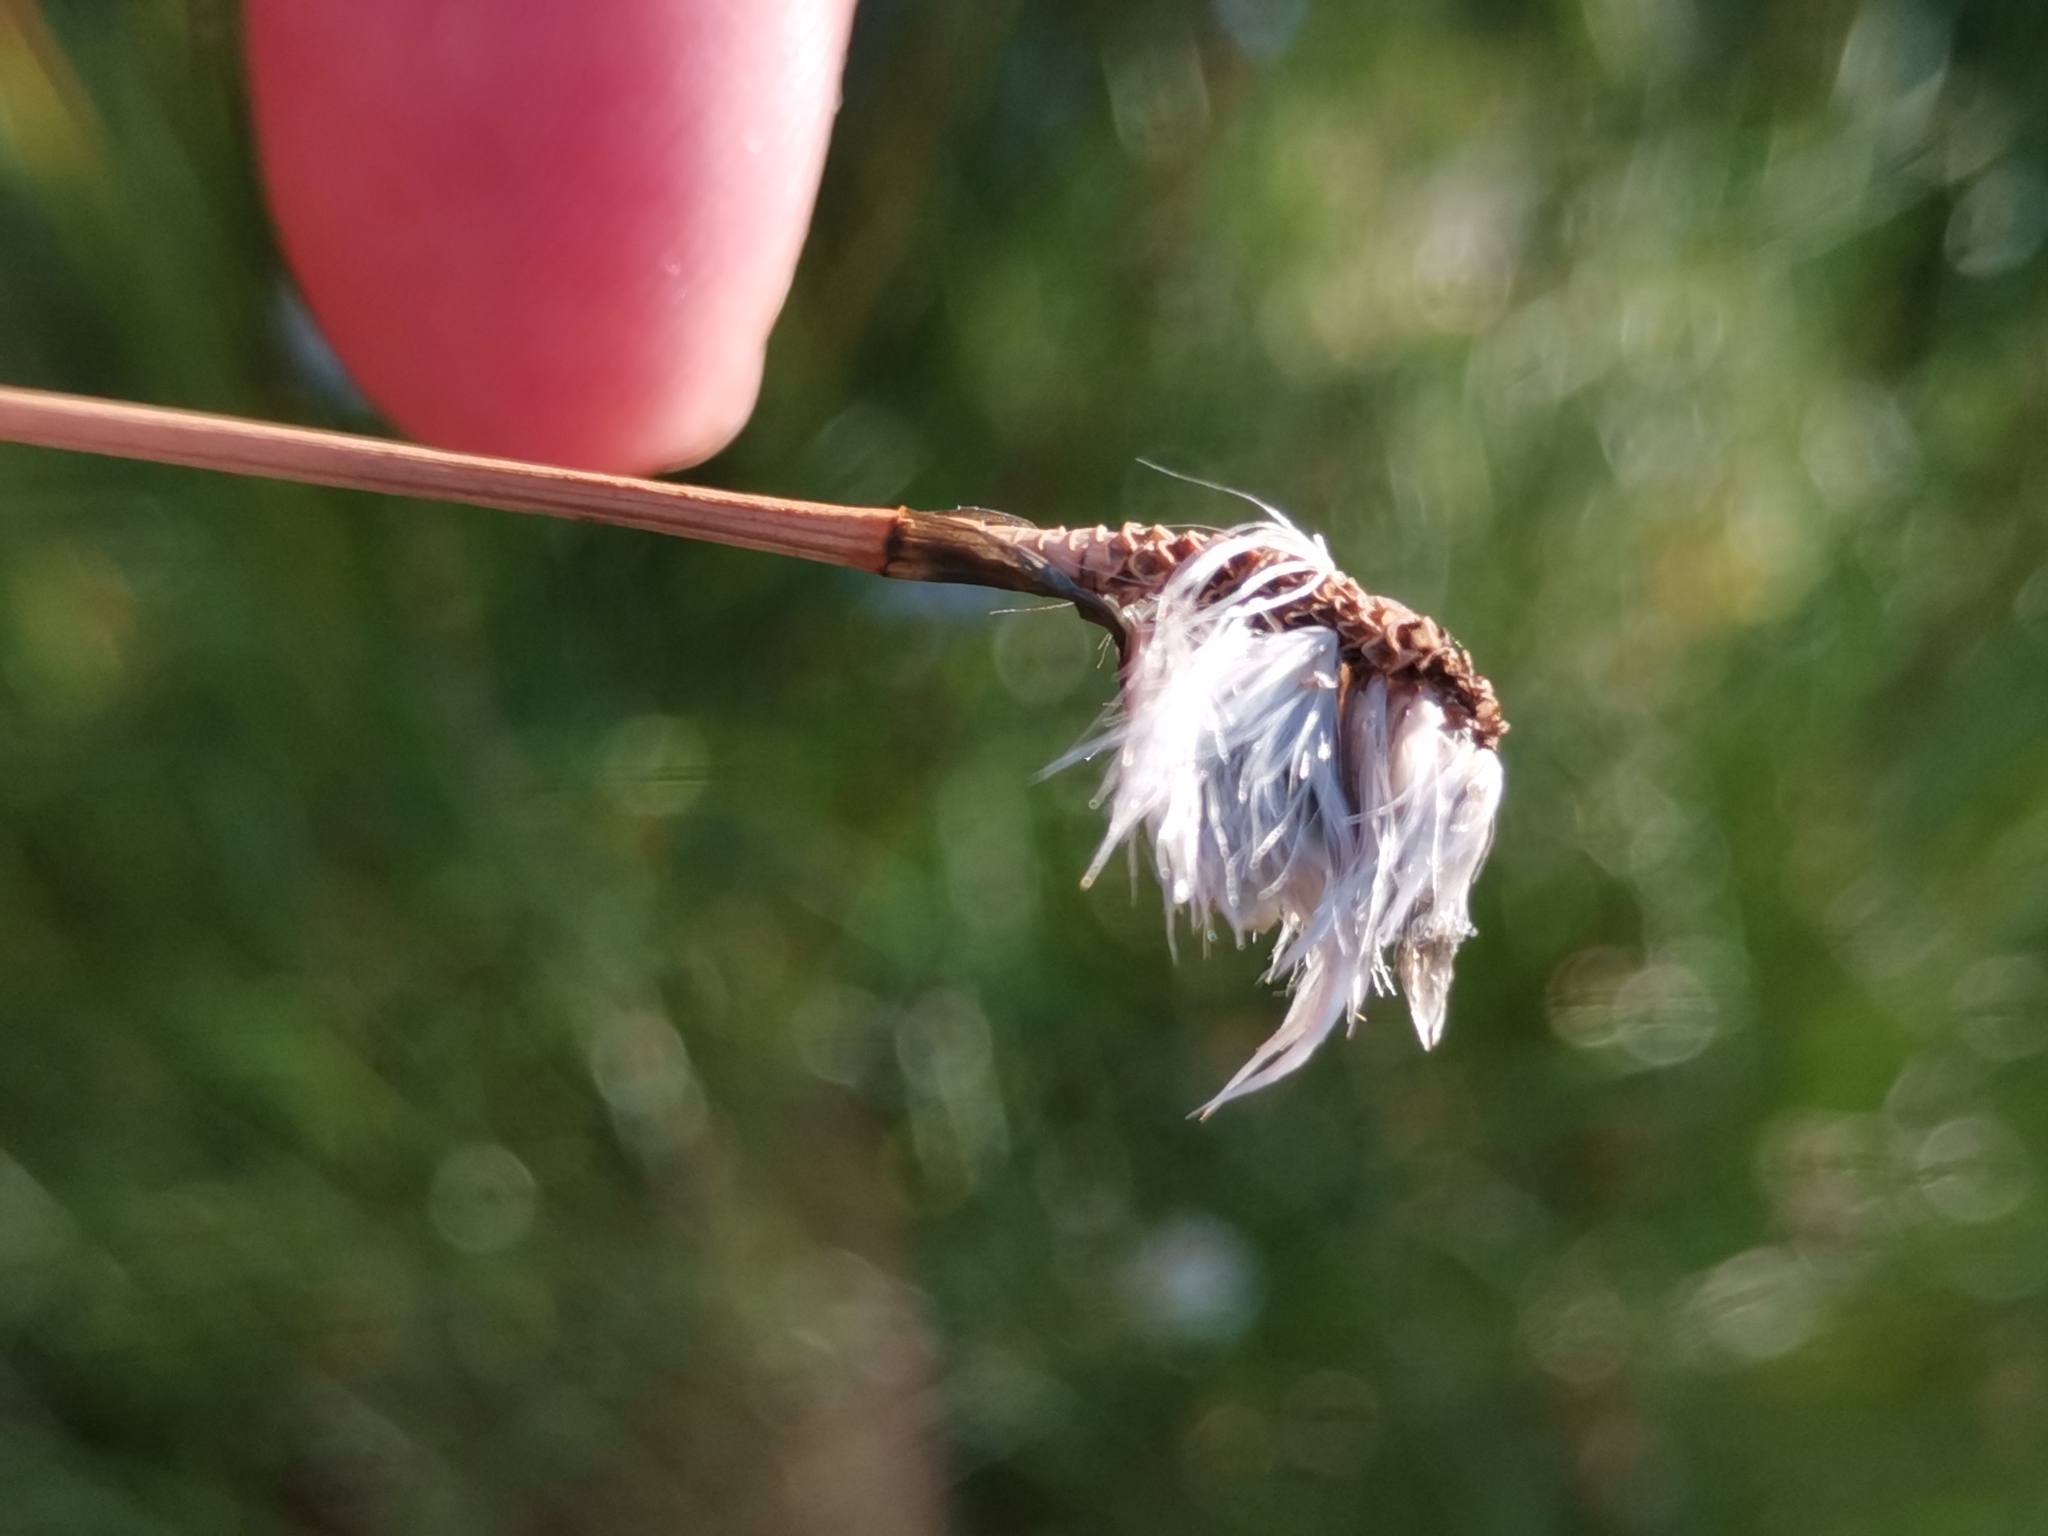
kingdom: Plantae
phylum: Tracheophyta
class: Liliopsida
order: Poales
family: Cyperaceae
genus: Eriophorum
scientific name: Eriophorum vaginatum
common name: Hare's-tail cottongrass
